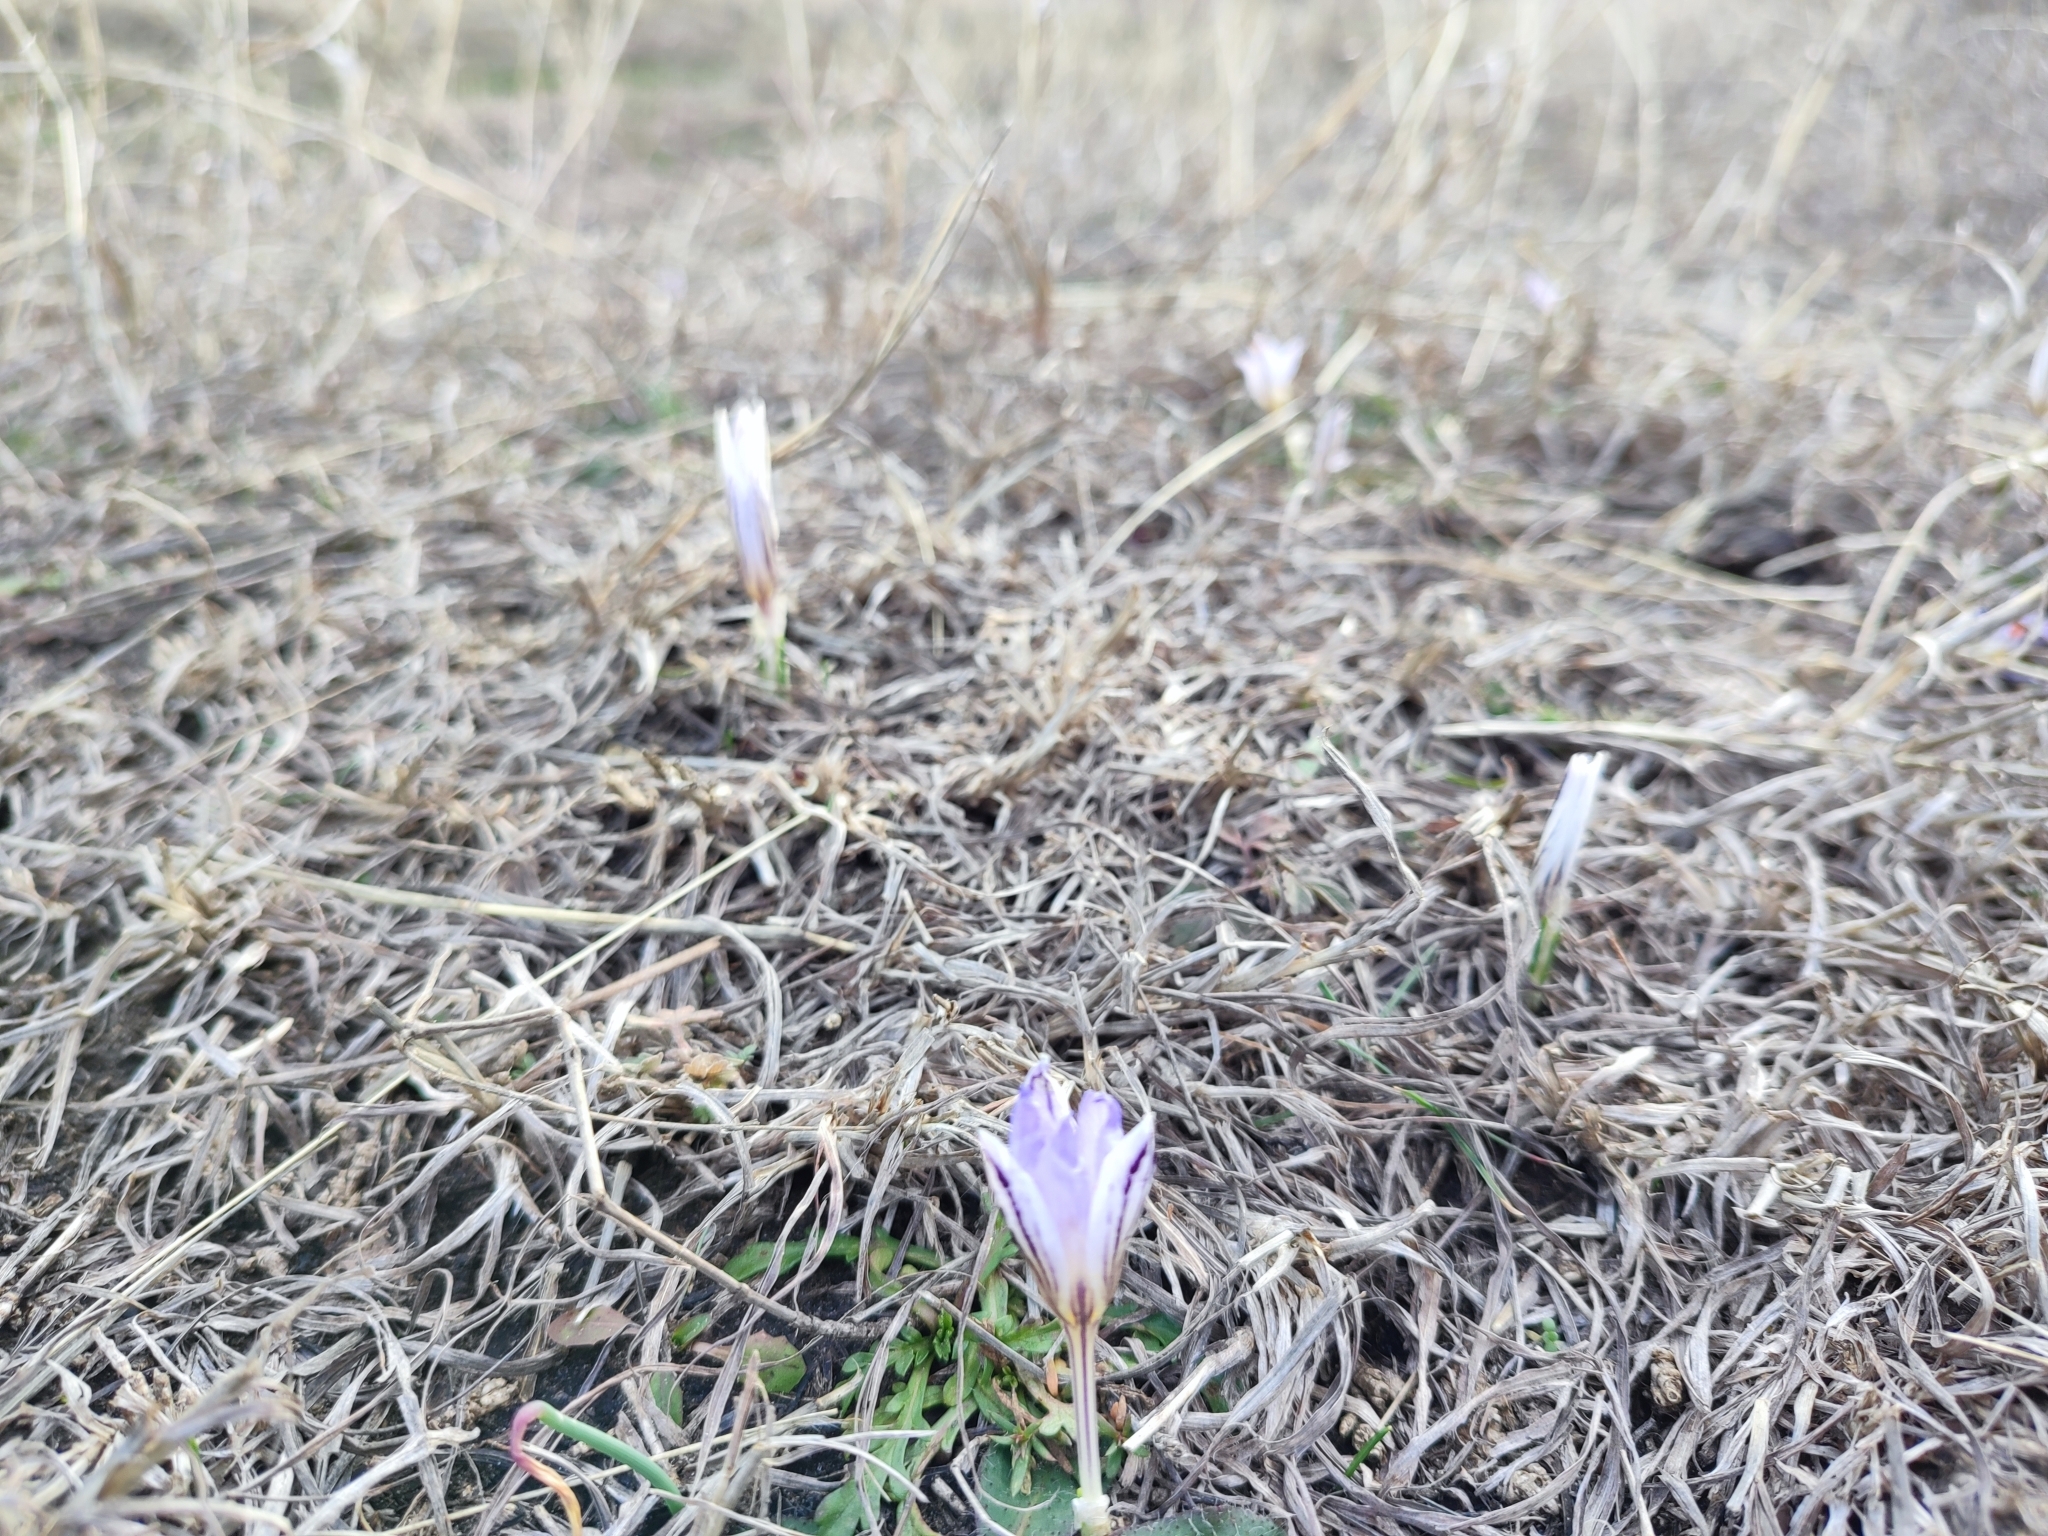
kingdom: Plantae
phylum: Tracheophyta
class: Liliopsida
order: Asparagales
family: Iridaceae
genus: Crocus
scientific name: Crocus reticulatus
